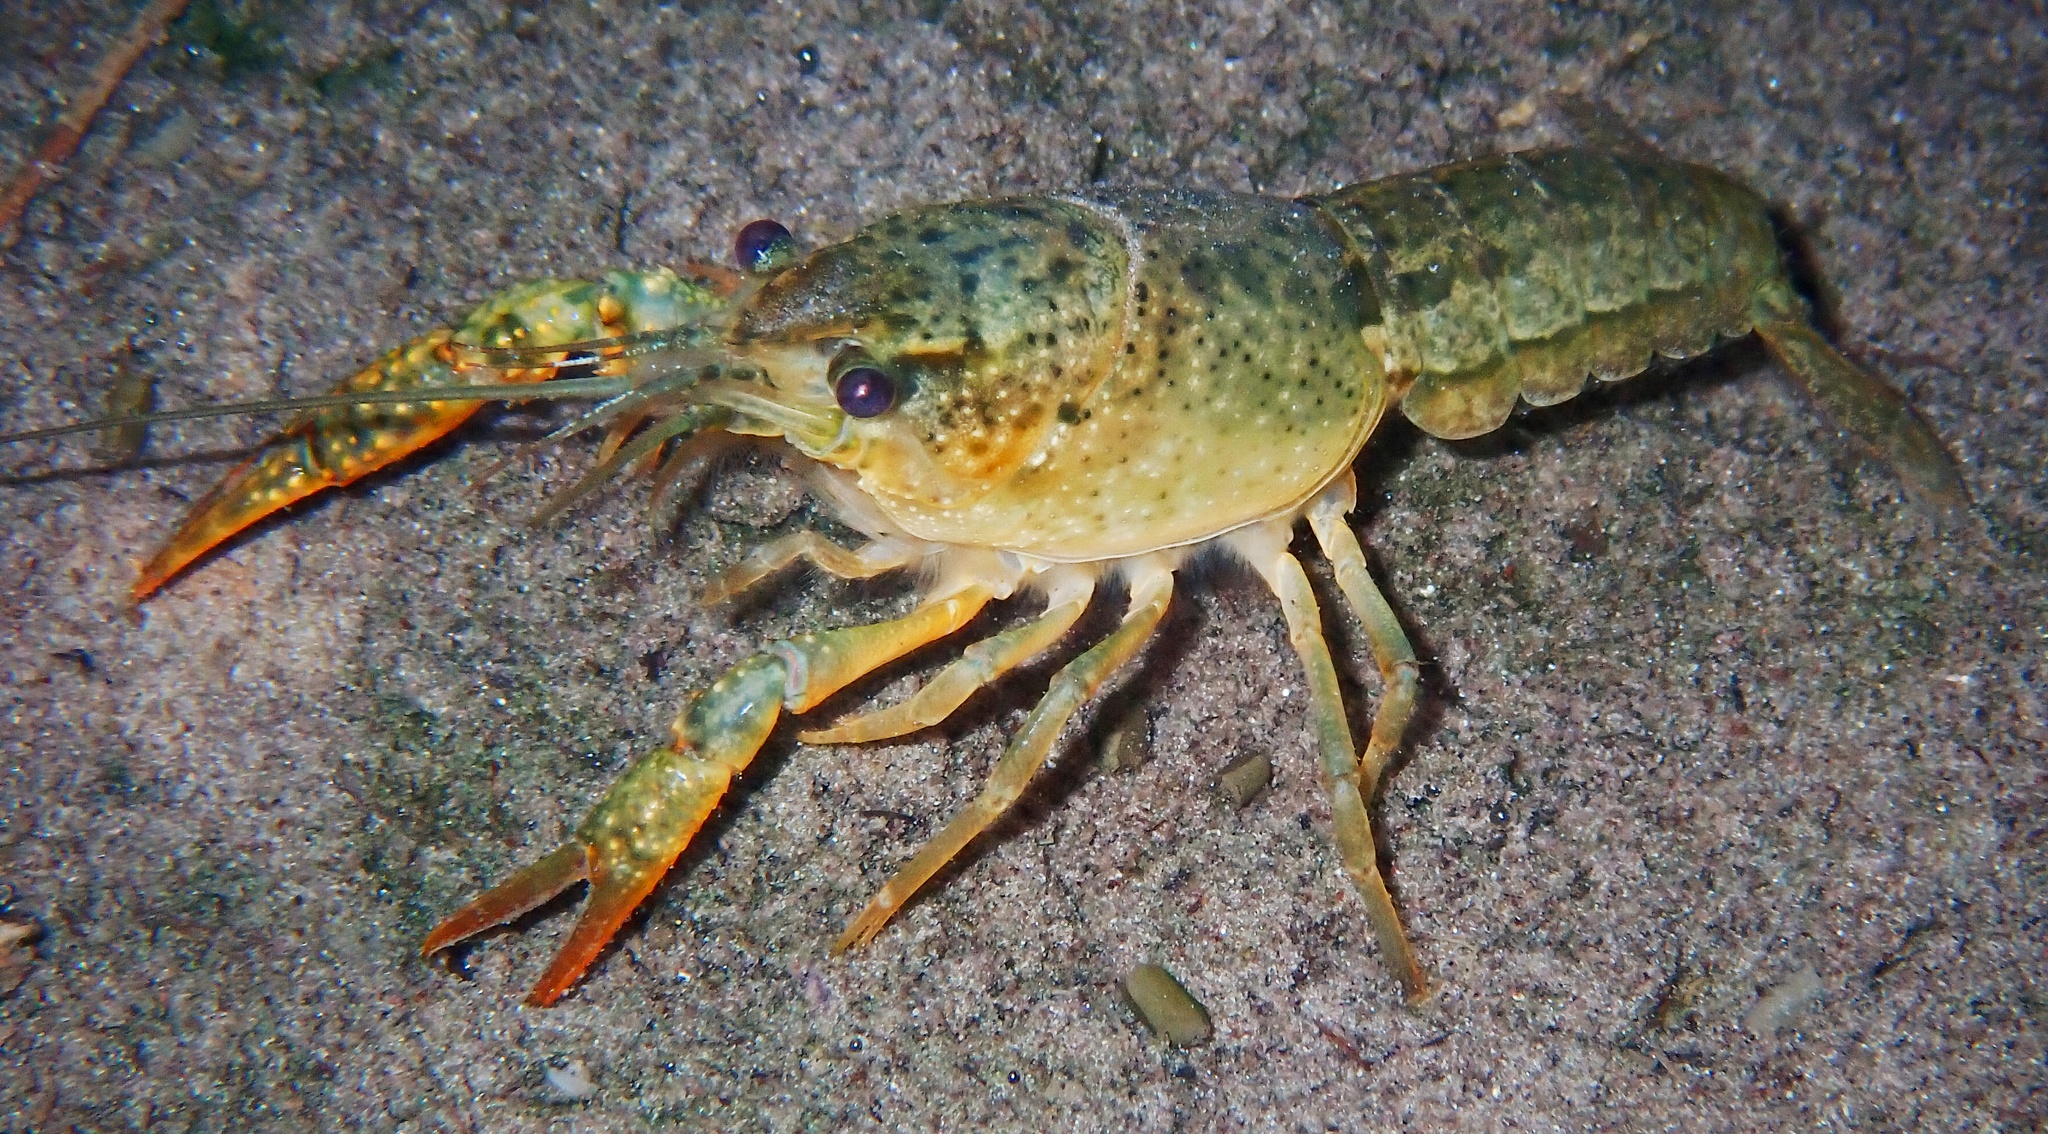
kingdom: Animalia
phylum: Arthropoda
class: Malacostraca
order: Decapoda
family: Cambaridae
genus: Procambarus
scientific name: Procambarus clarkii
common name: Red swamp crayfish
